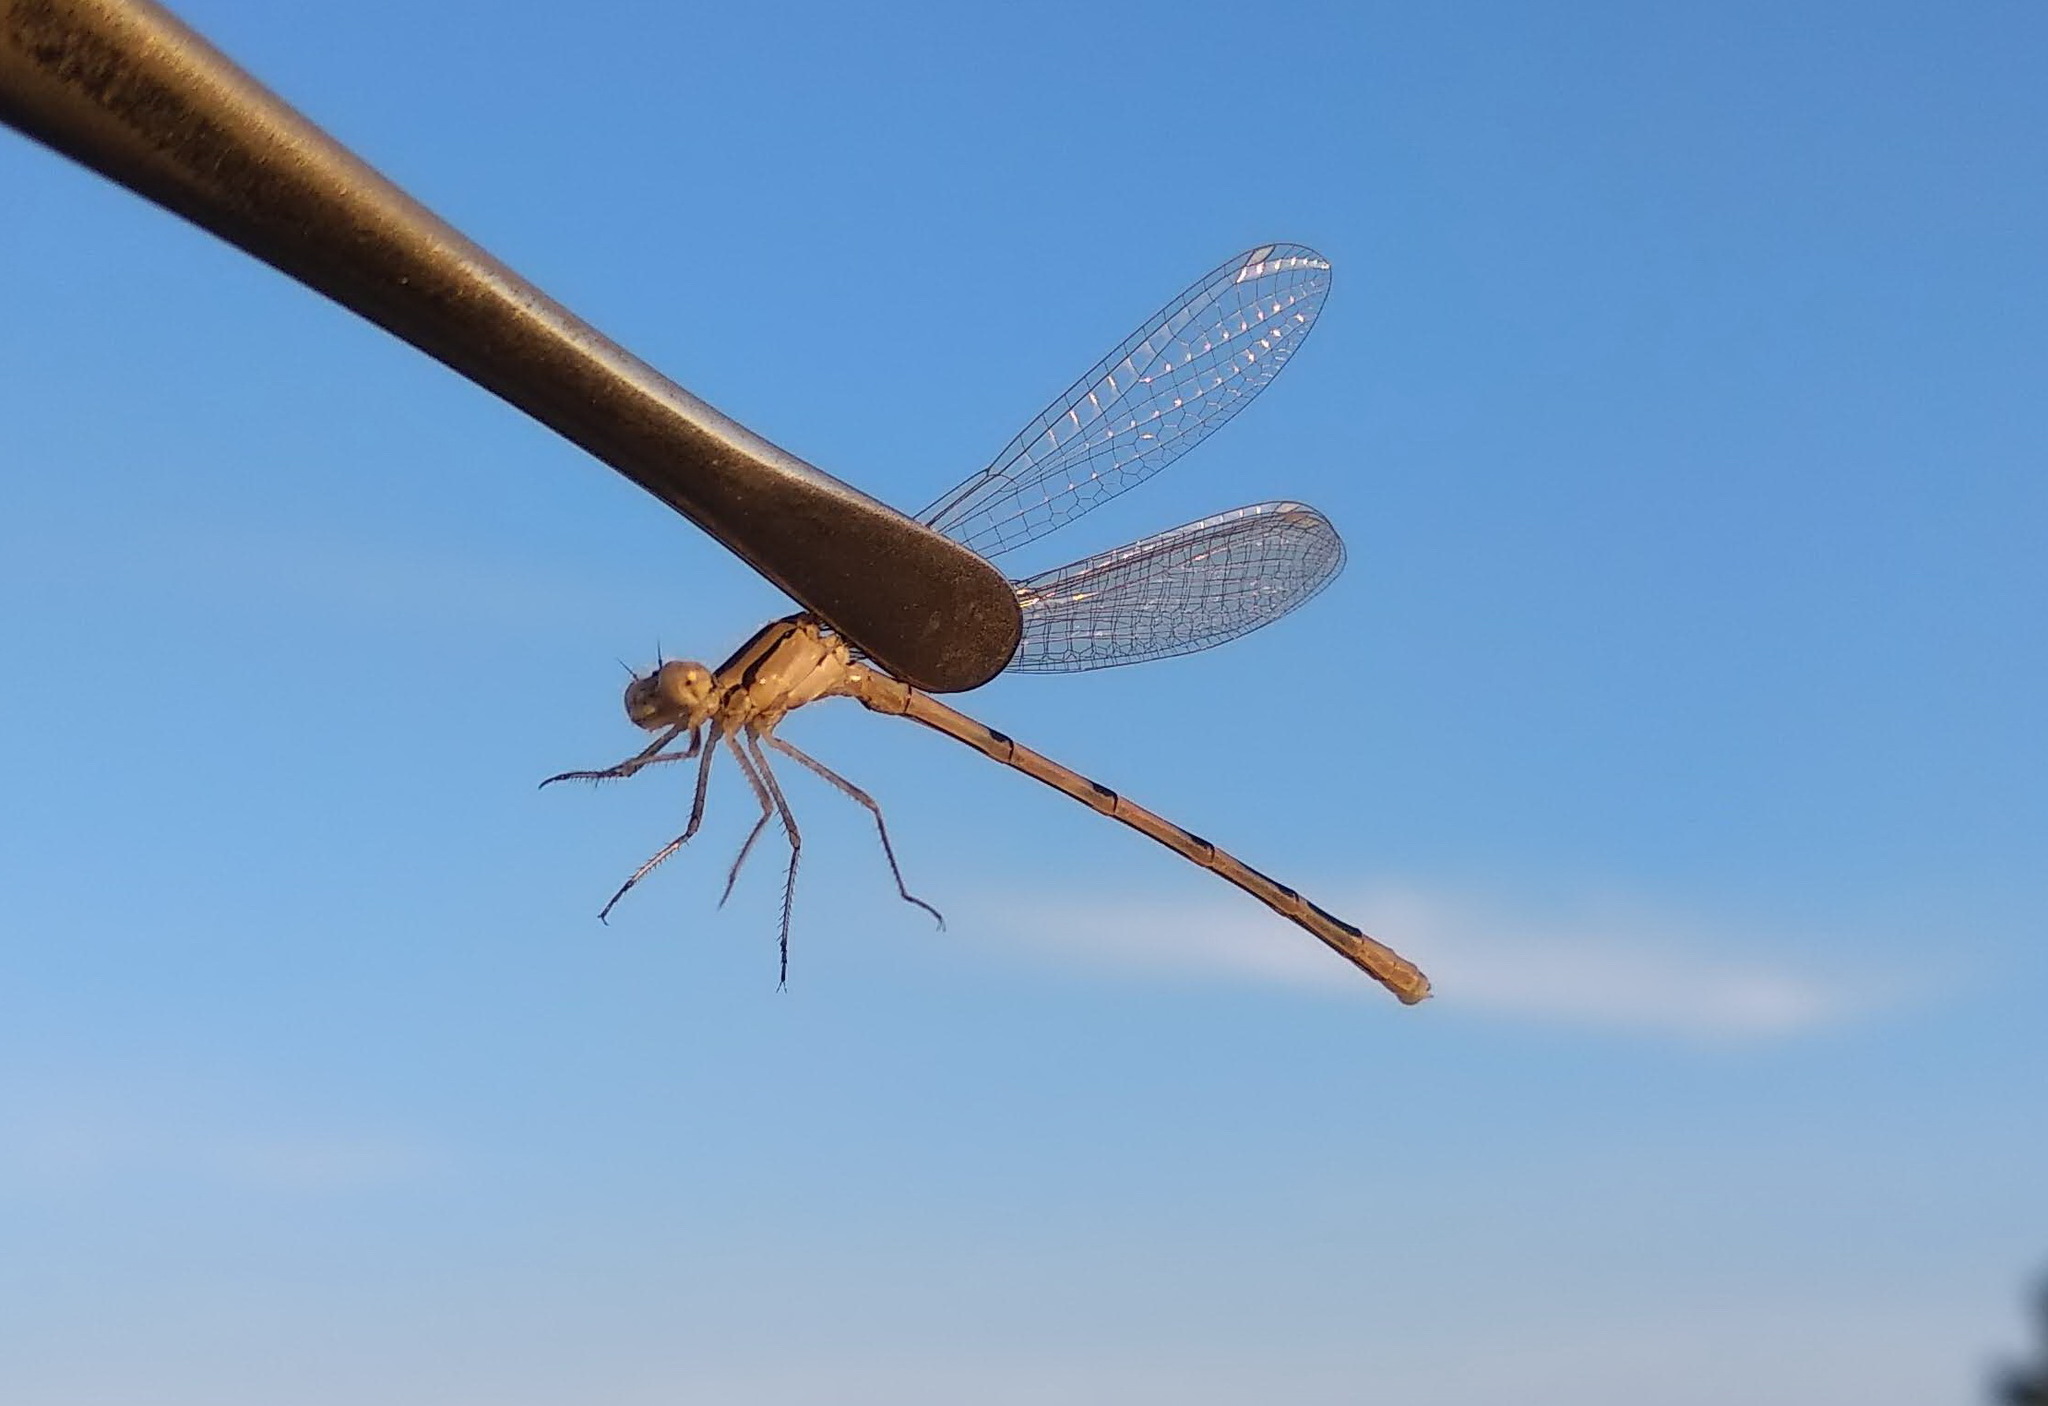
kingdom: Animalia
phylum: Arthropoda
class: Insecta
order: Odonata
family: Coenagrionidae
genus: Enallagma
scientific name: Enallagma cyathigerum
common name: Common blue damselfly
